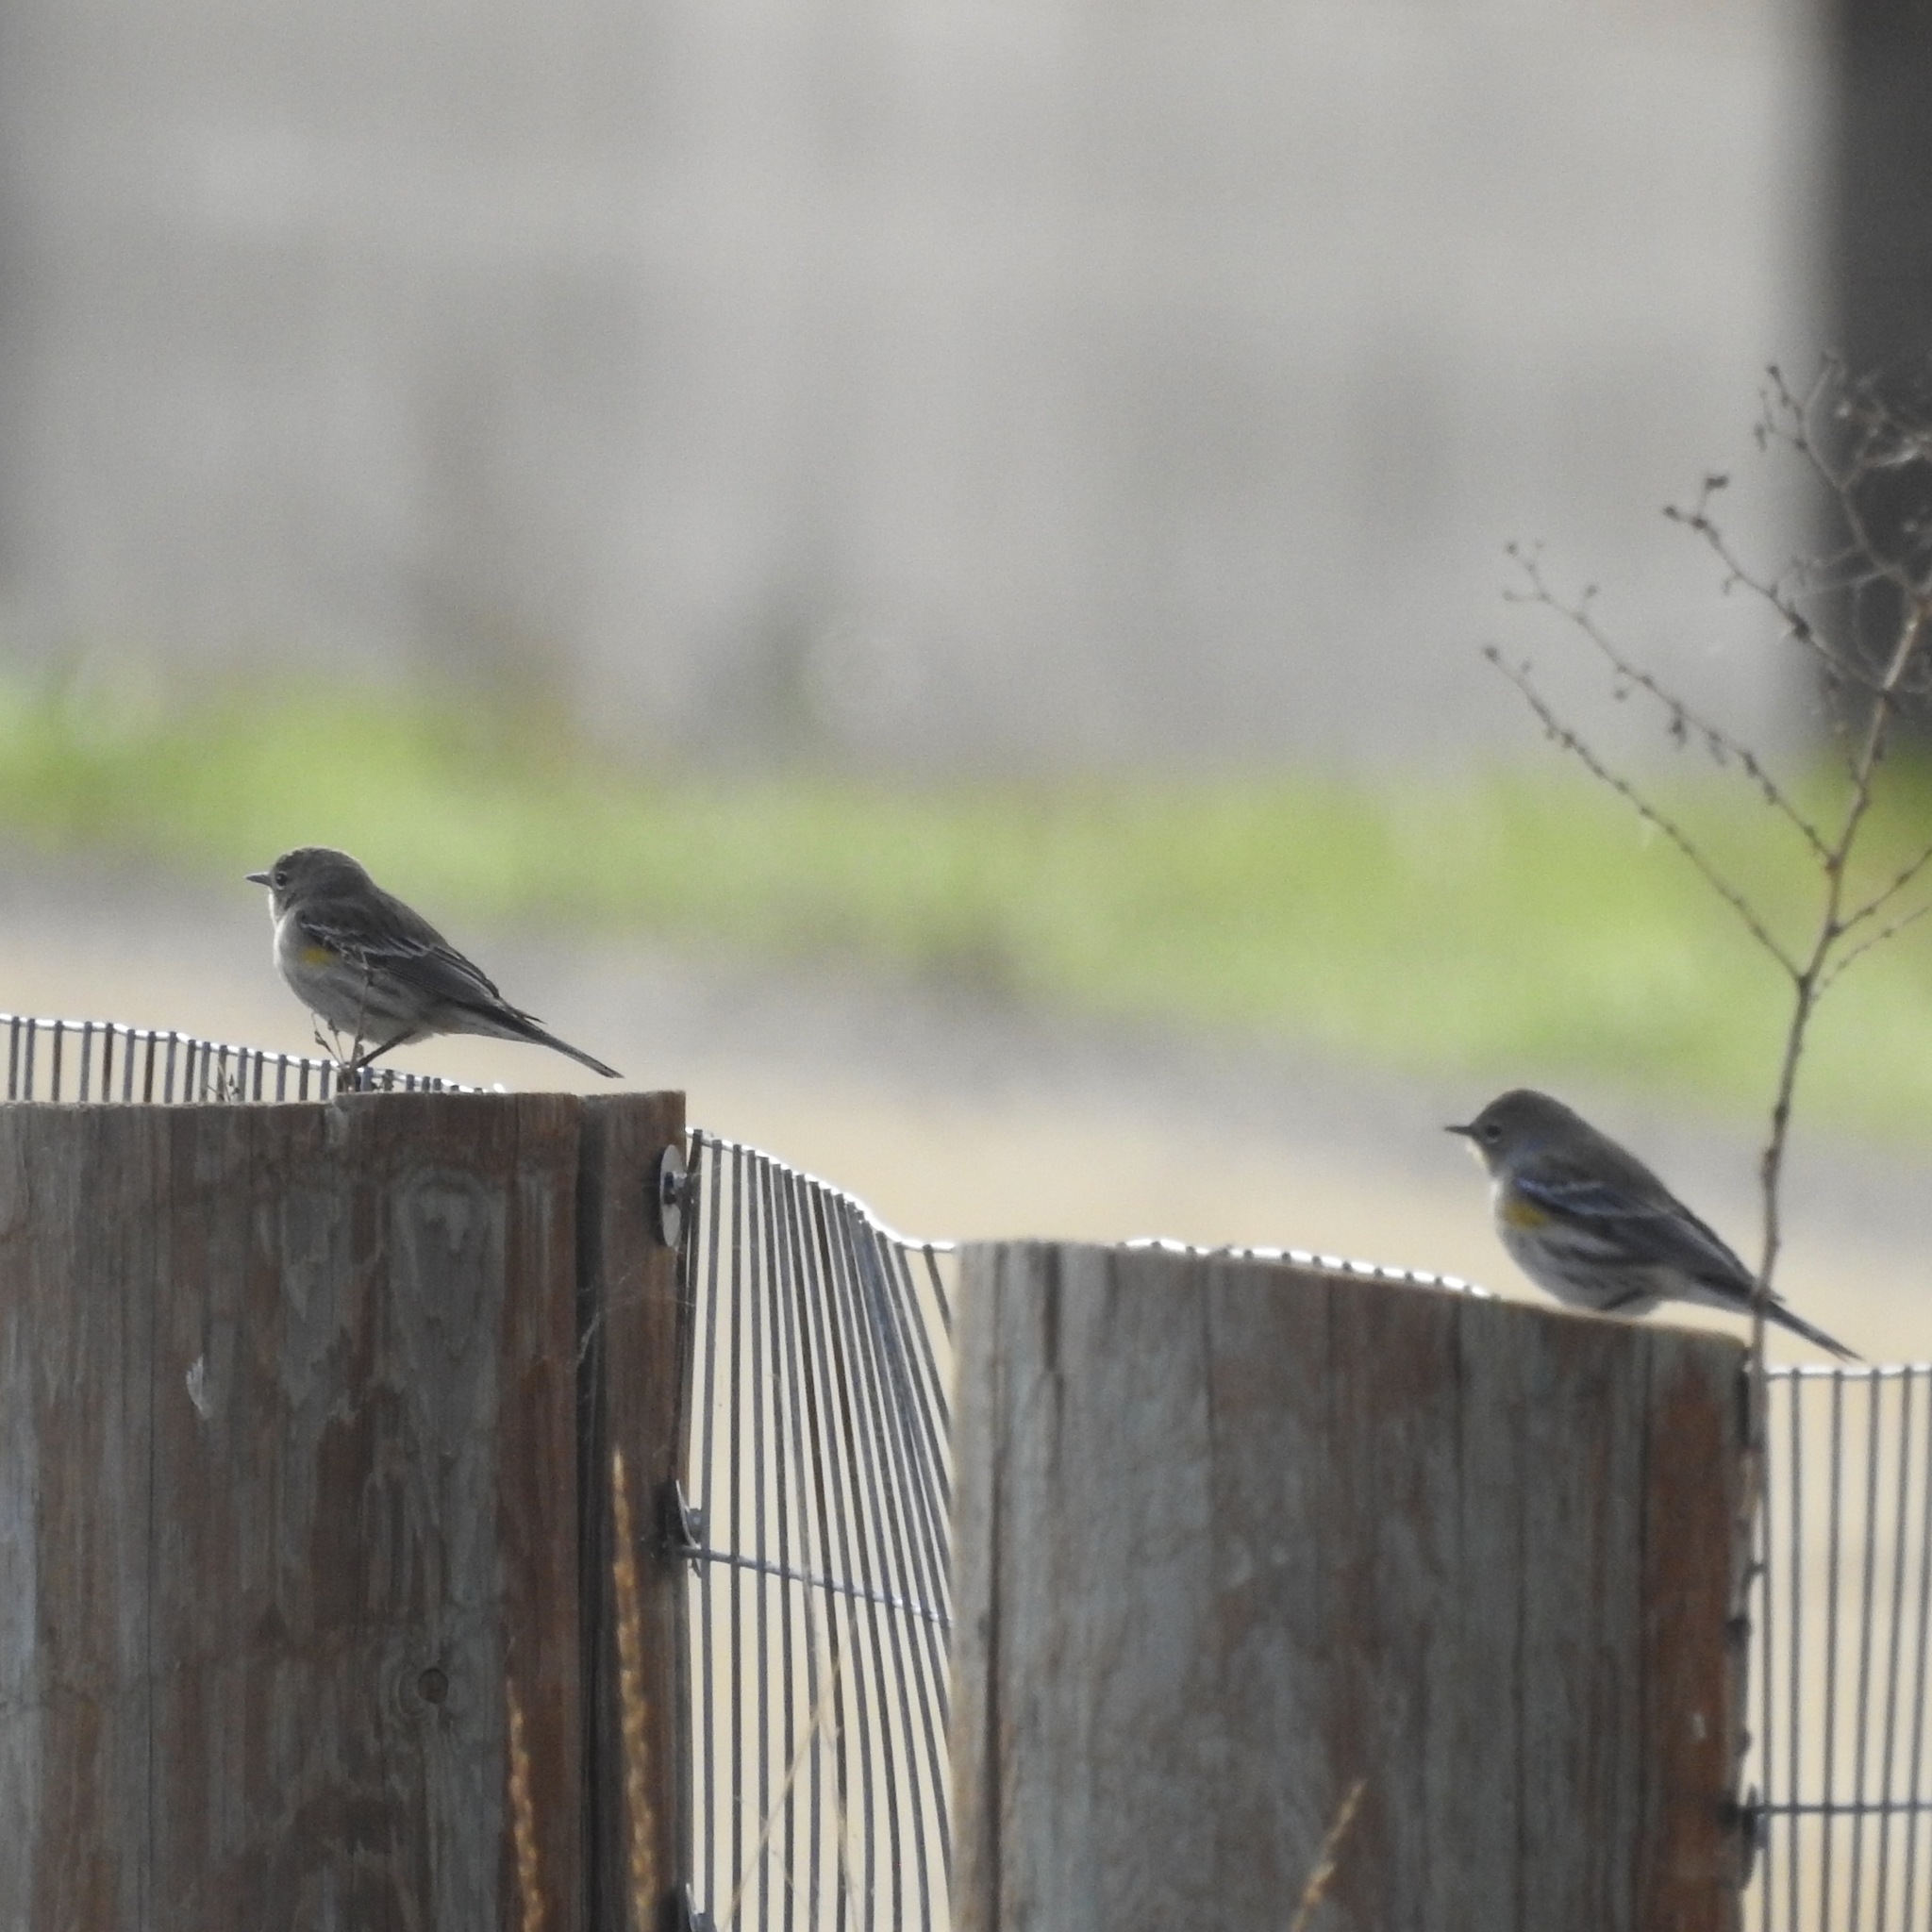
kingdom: Animalia
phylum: Chordata
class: Aves
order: Passeriformes
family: Parulidae
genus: Setophaga
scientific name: Setophaga coronata
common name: Myrtle warbler
